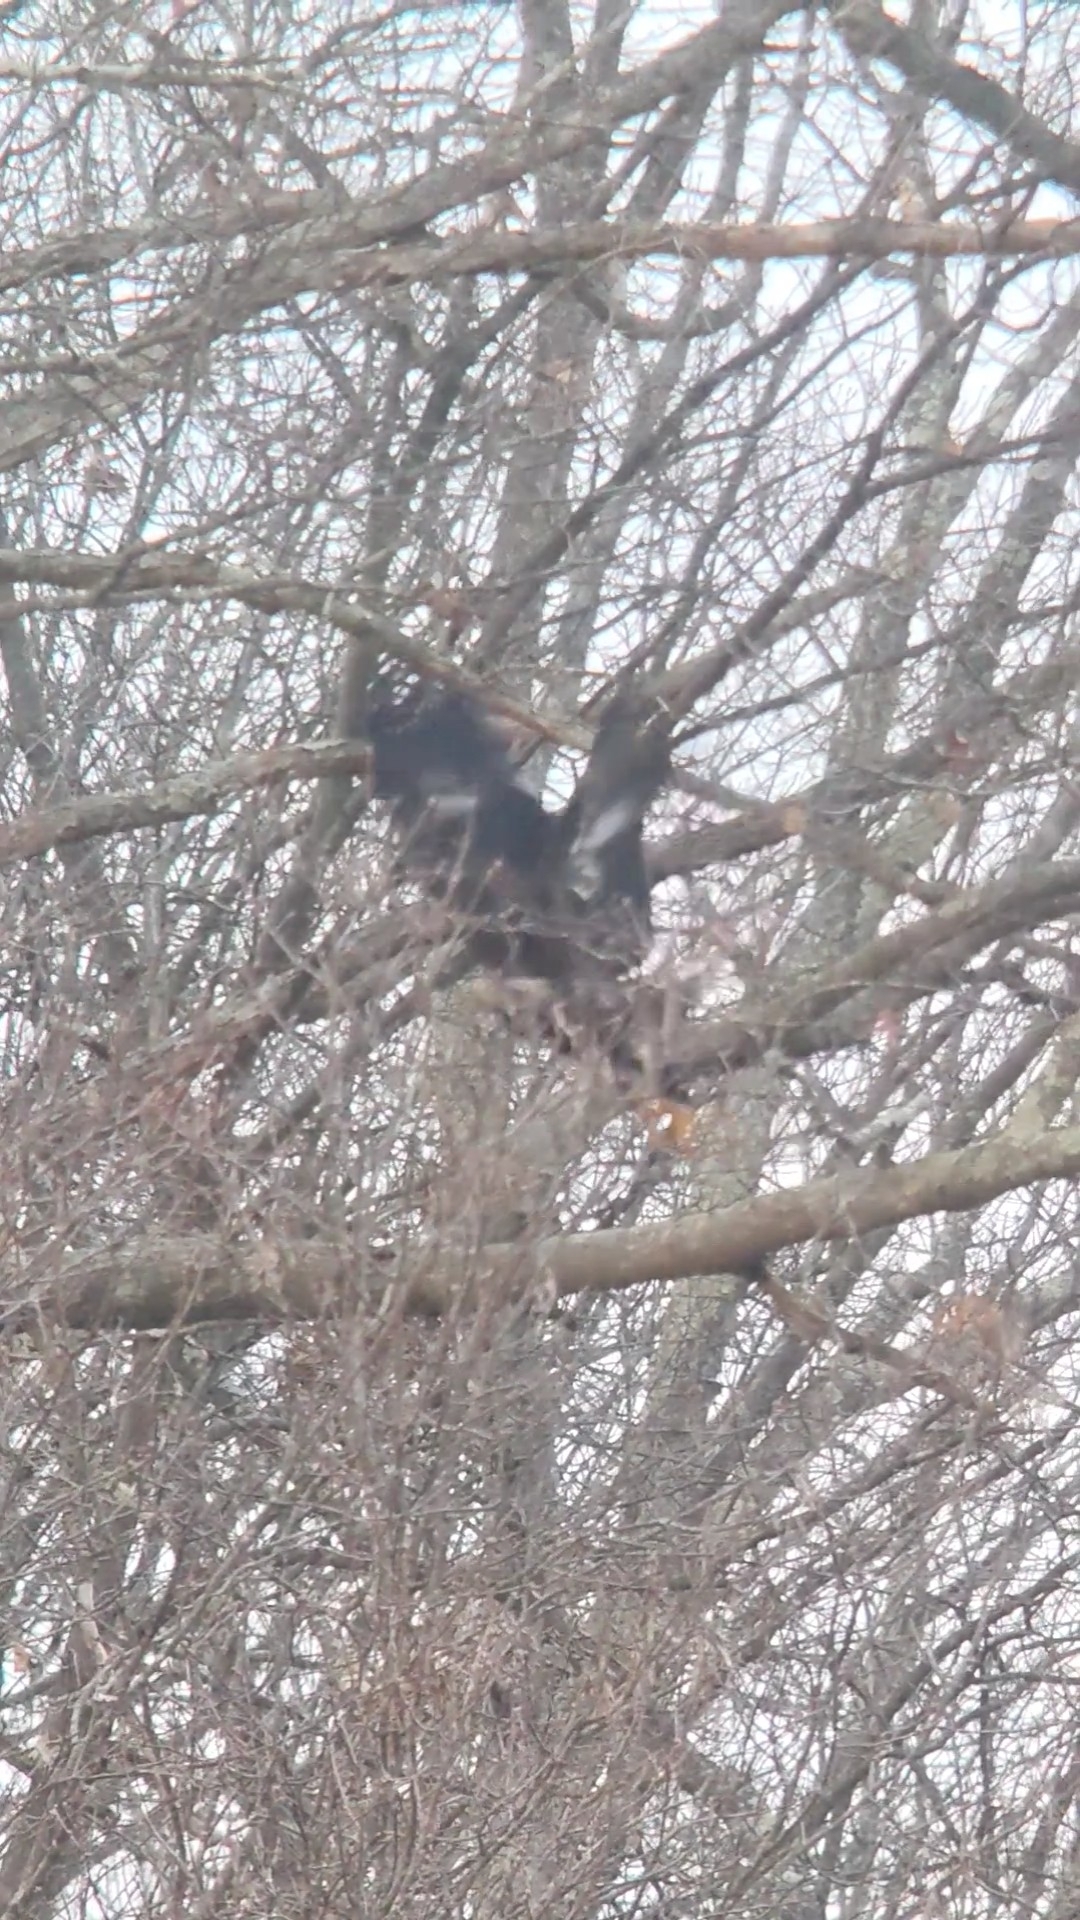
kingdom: Animalia
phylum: Chordata
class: Aves
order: Accipitriformes
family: Accipitridae
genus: Aquila
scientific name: Aquila chrysaetos
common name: Golden eagle
